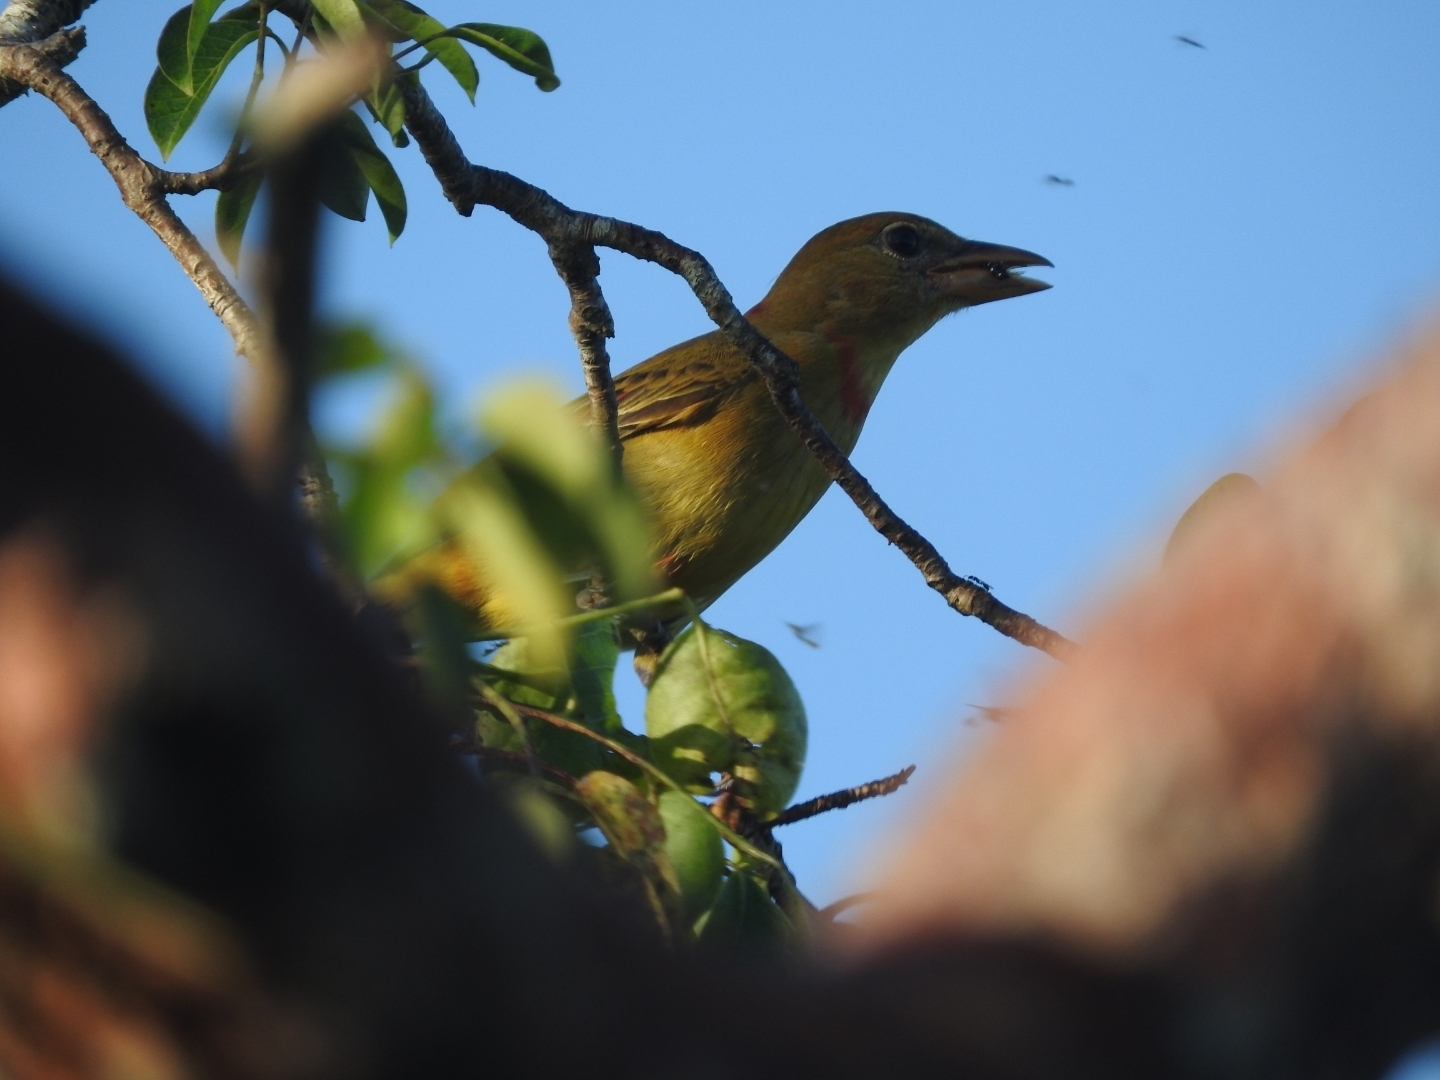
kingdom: Animalia
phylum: Chordata
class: Aves
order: Passeriformes
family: Cardinalidae
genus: Piranga
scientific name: Piranga roseogularis
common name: Rose-throated tanager
